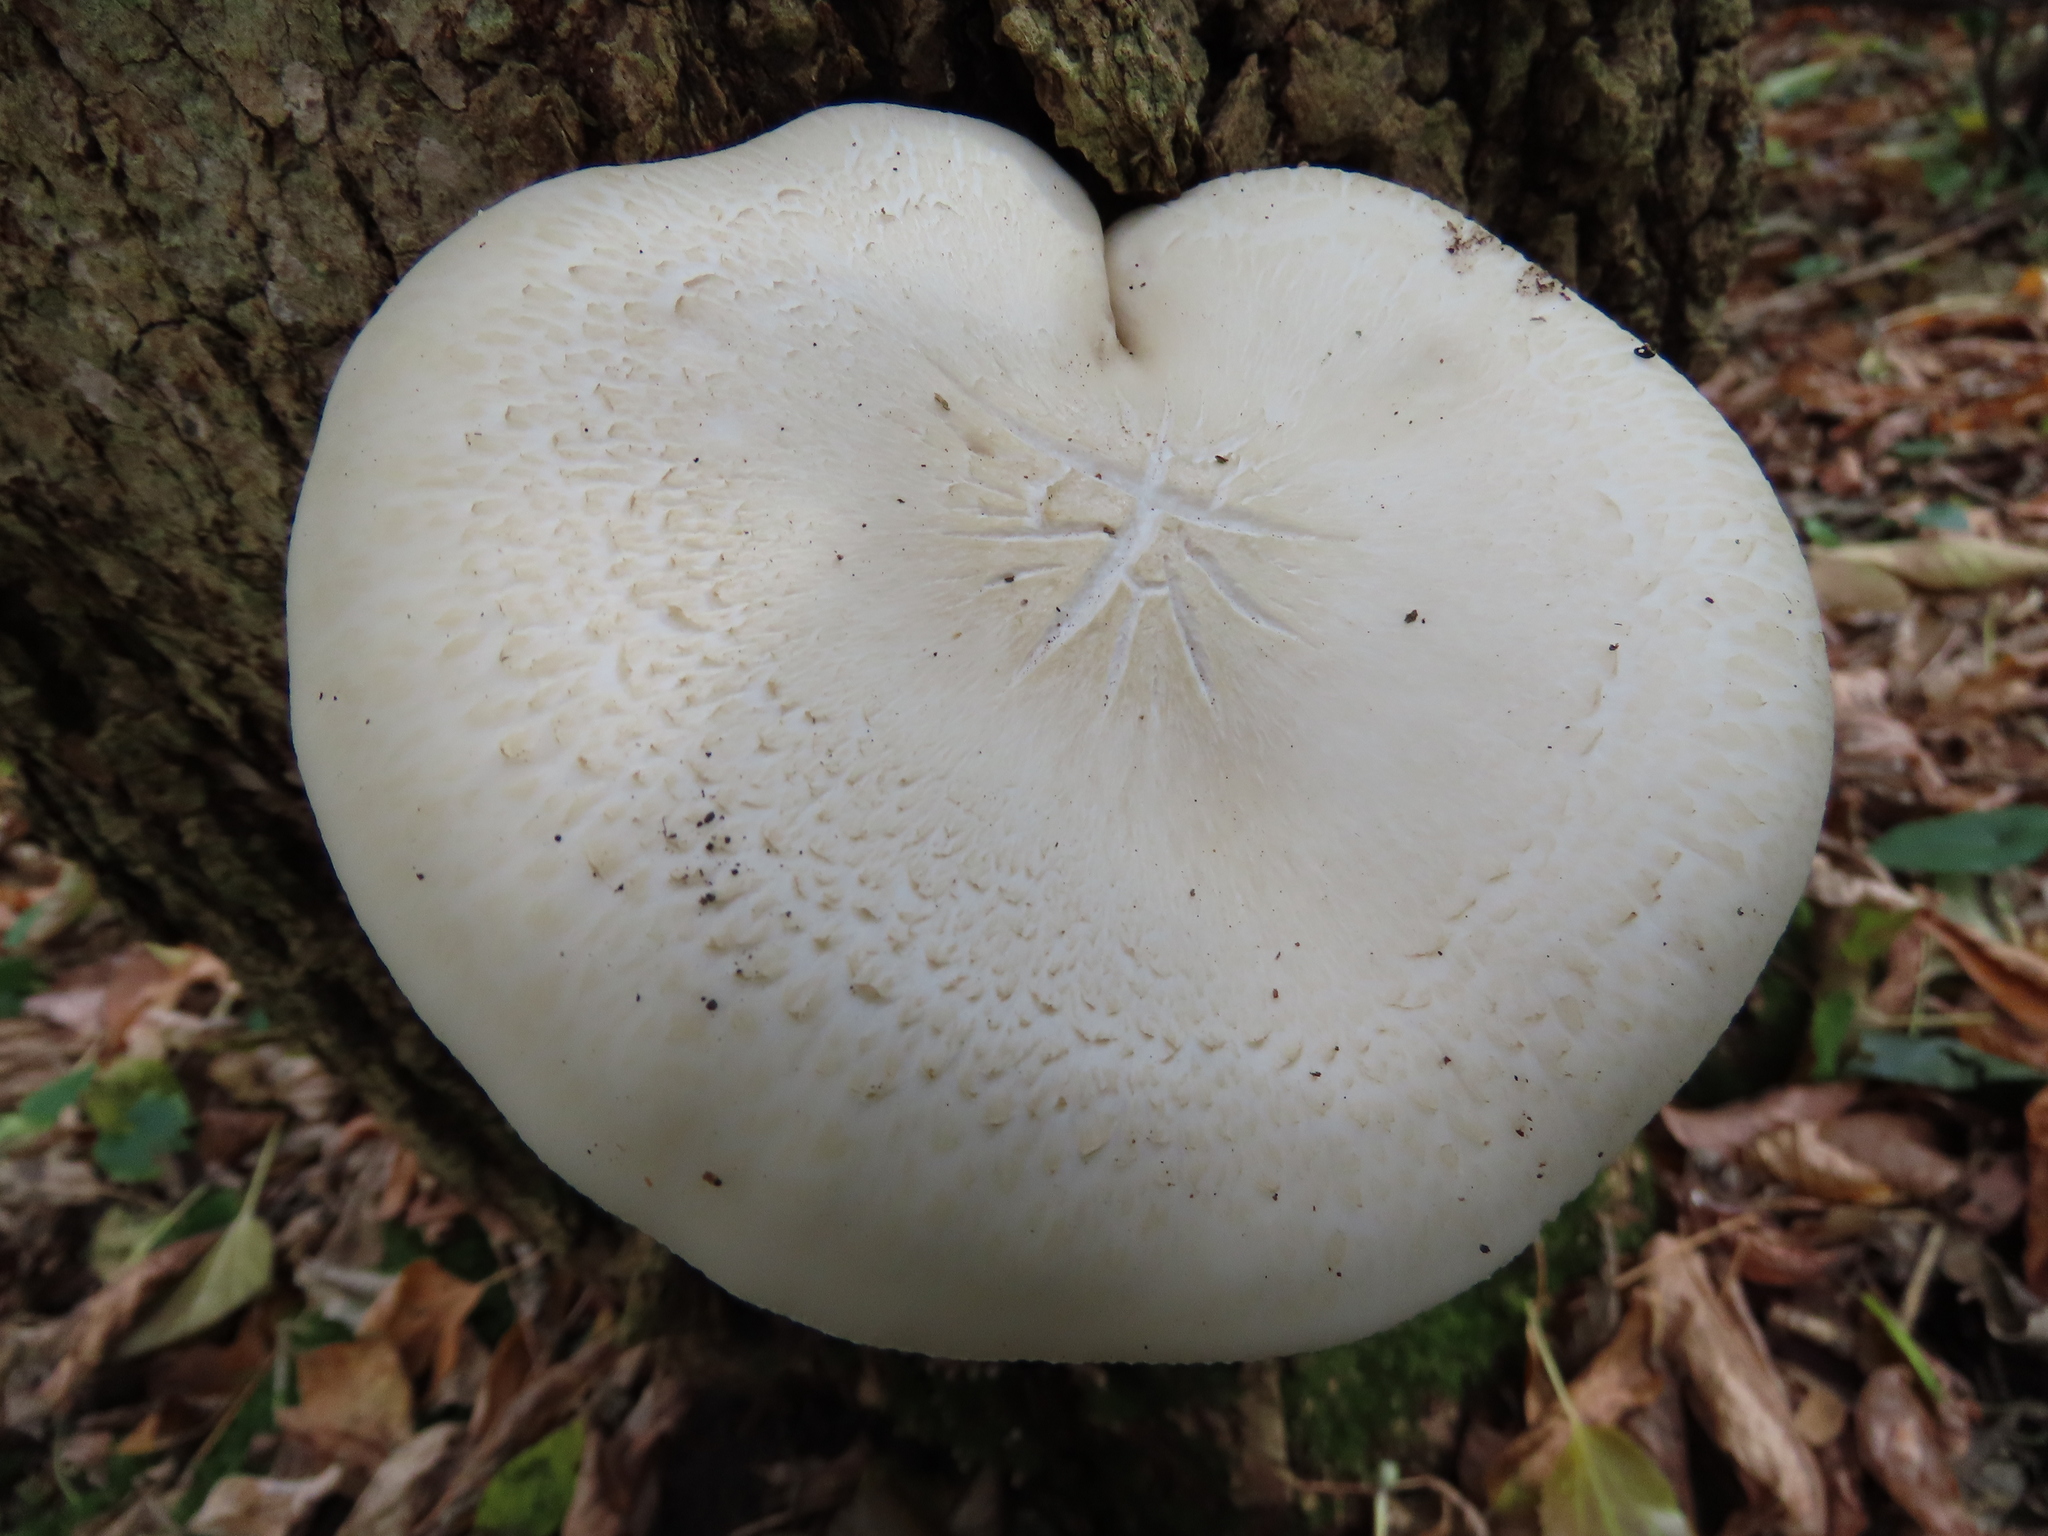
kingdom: Fungi
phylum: Basidiomycota
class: Agaricomycetes
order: Agaricales
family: Lyophyllaceae
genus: Hypsizygus
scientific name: Hypsizygus ulmarius
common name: Elm leech
